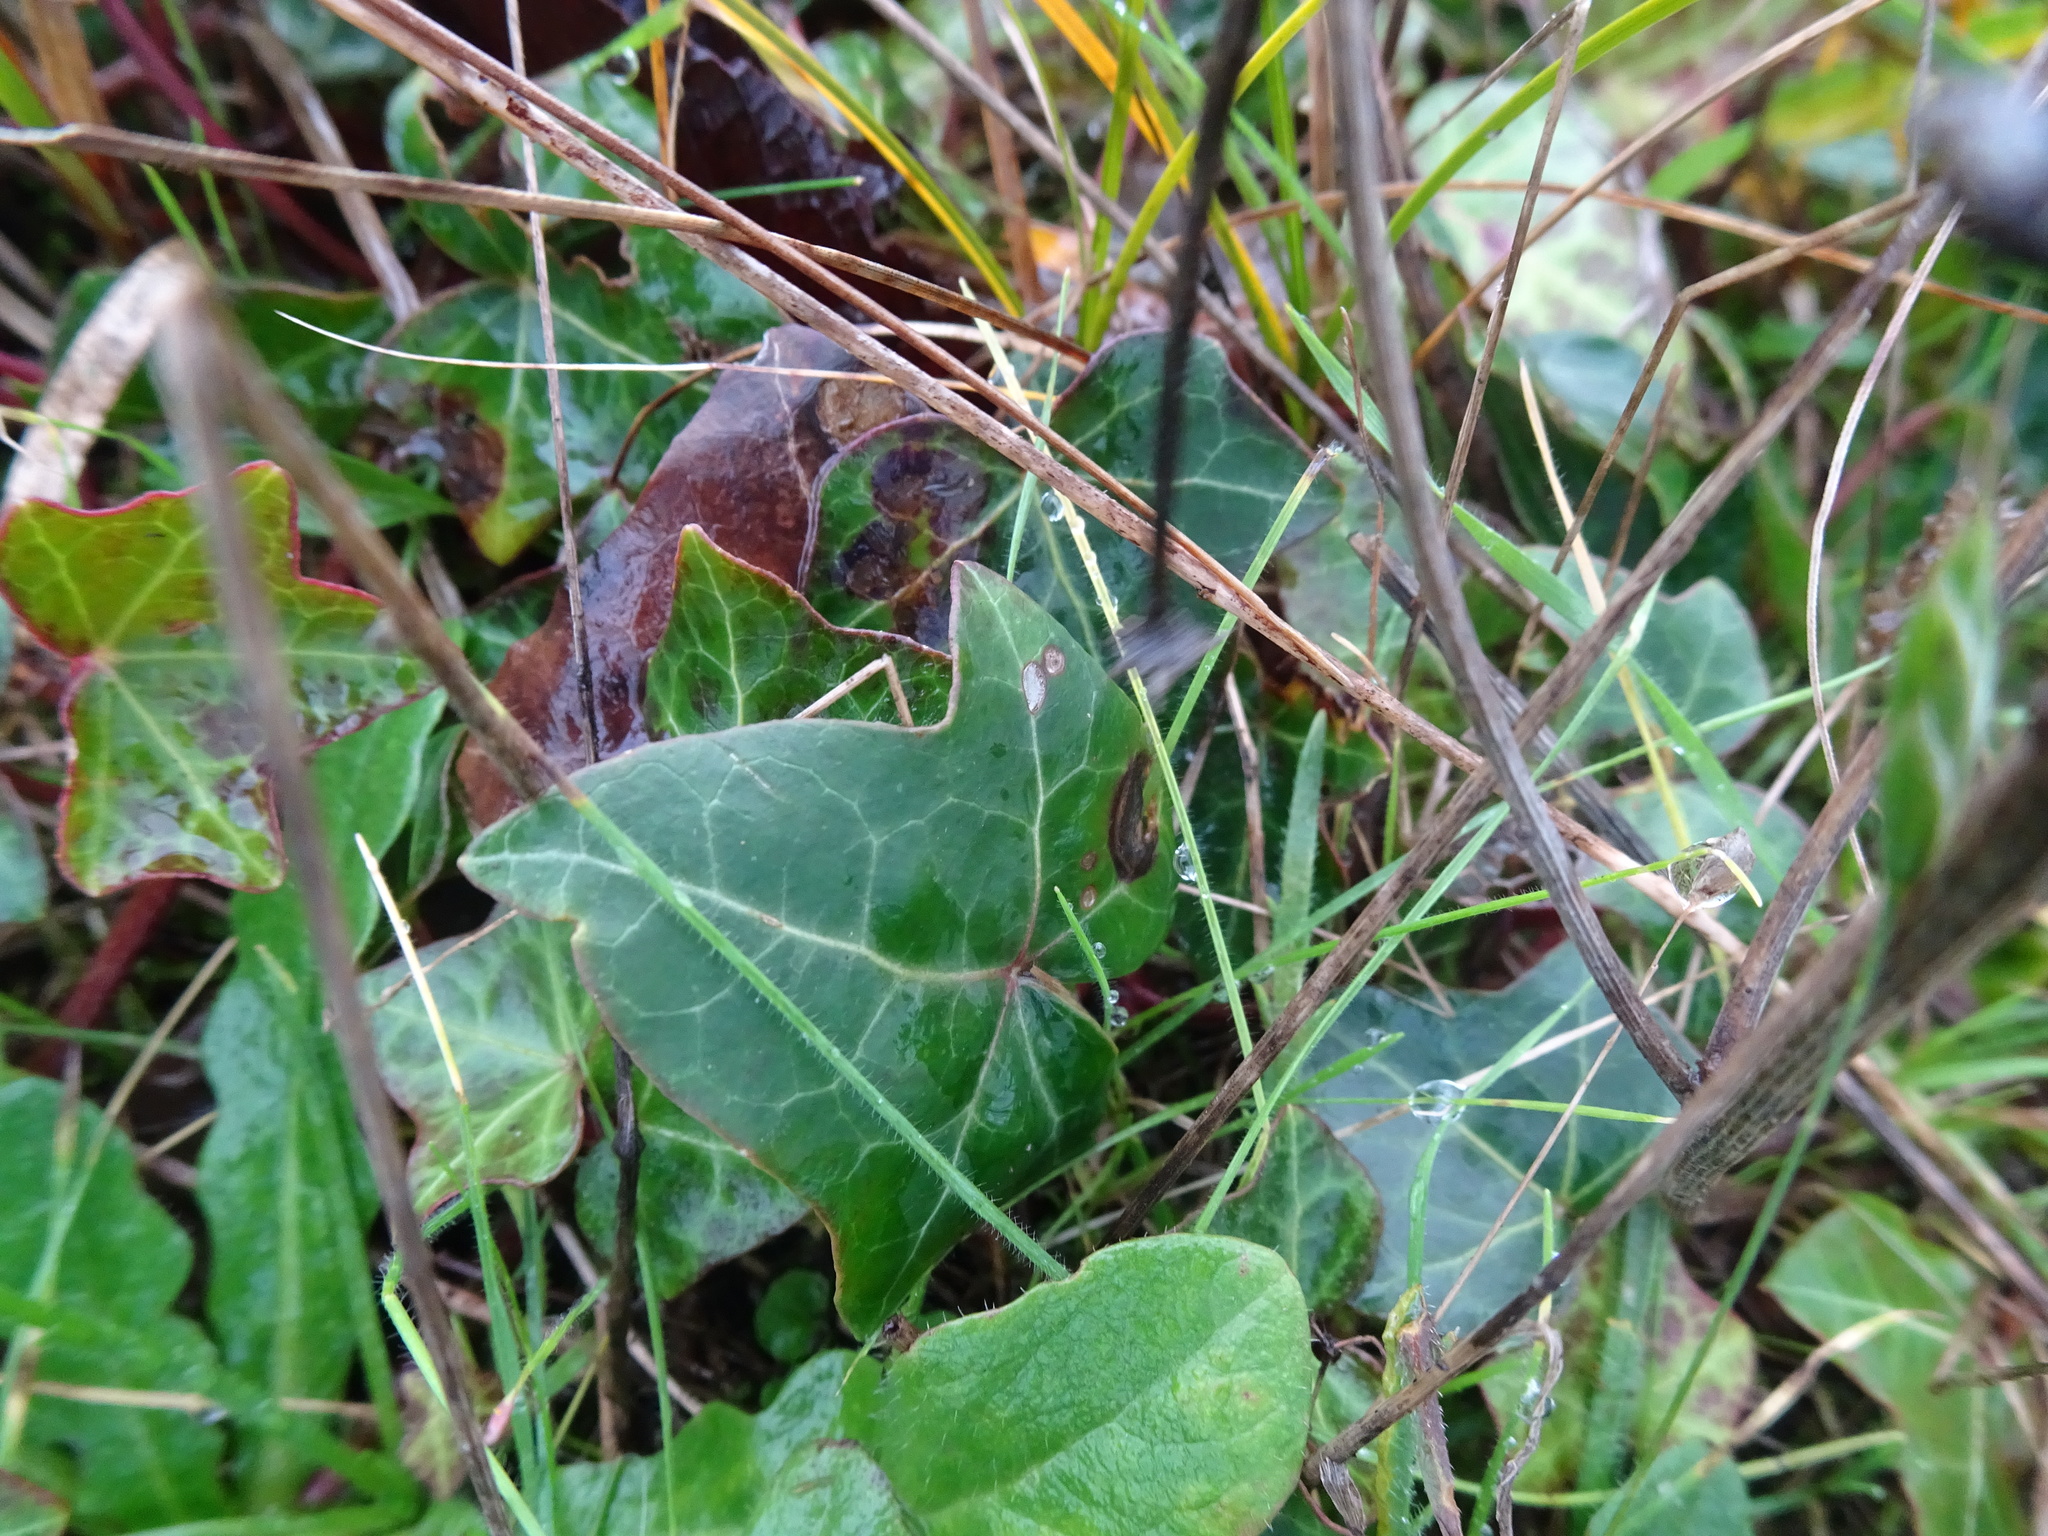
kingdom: Plantae
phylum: Tracheophyta
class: Magnoliopsida
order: Apiales
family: Araliaceae
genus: Hedera
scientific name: Hedera helix
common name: Ivy
